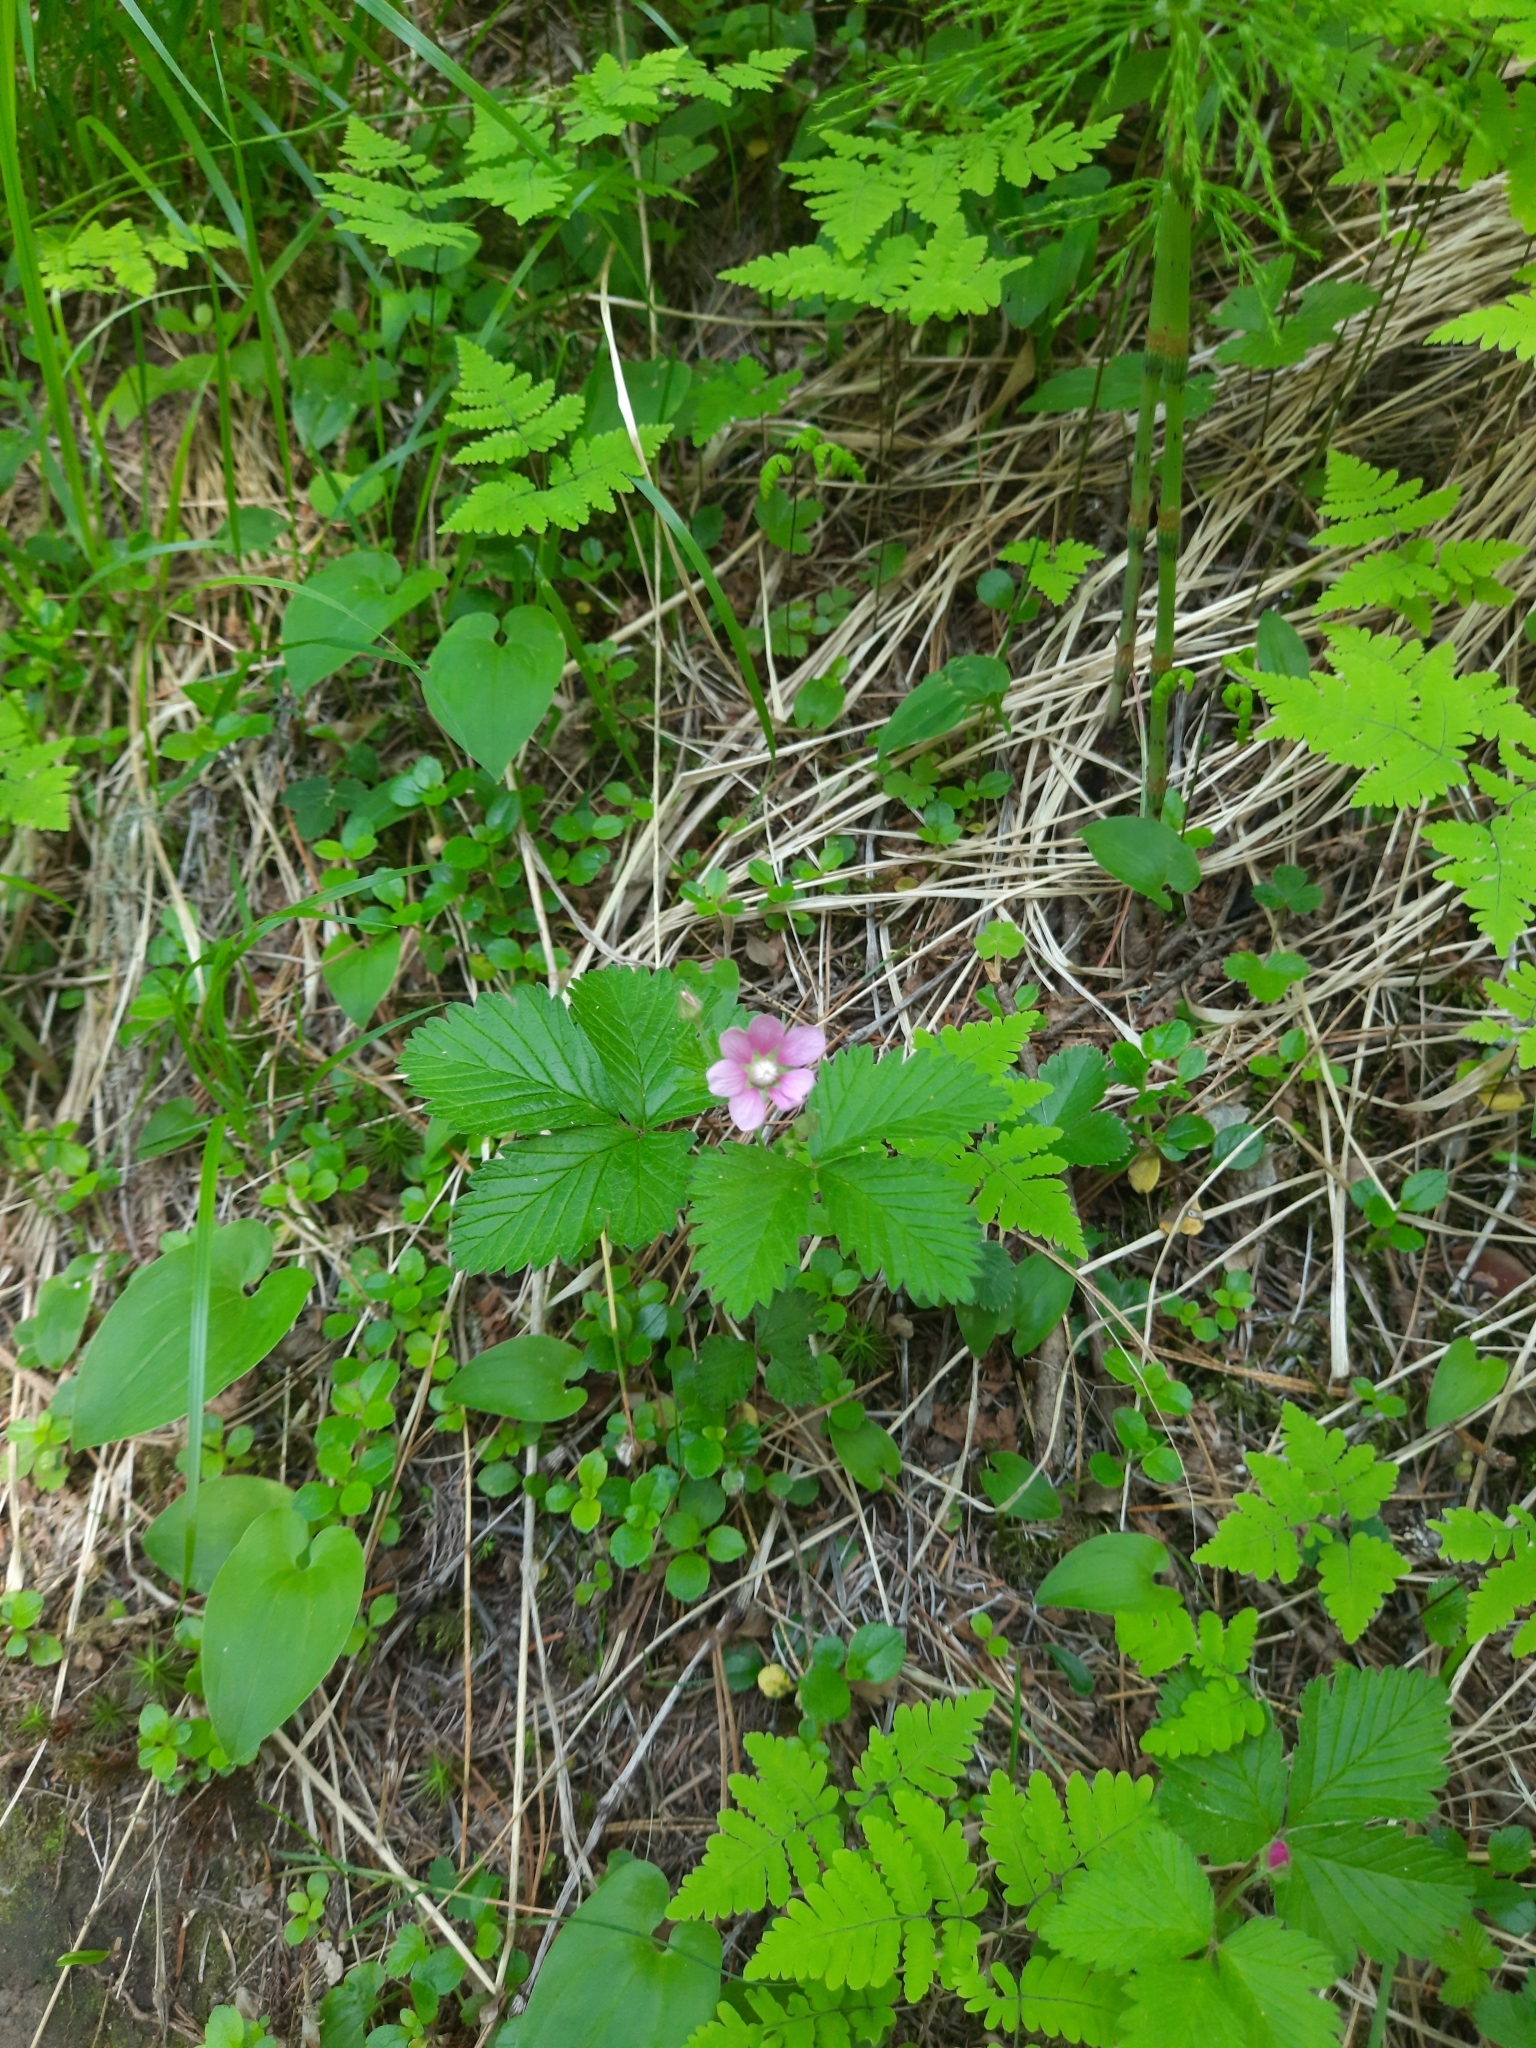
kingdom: Plantae
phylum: Tracheophyta
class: Magnoliopsida
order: Rosales
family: Rosaceae
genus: Rubus
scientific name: Rubus arcticus
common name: Arctic bramble
